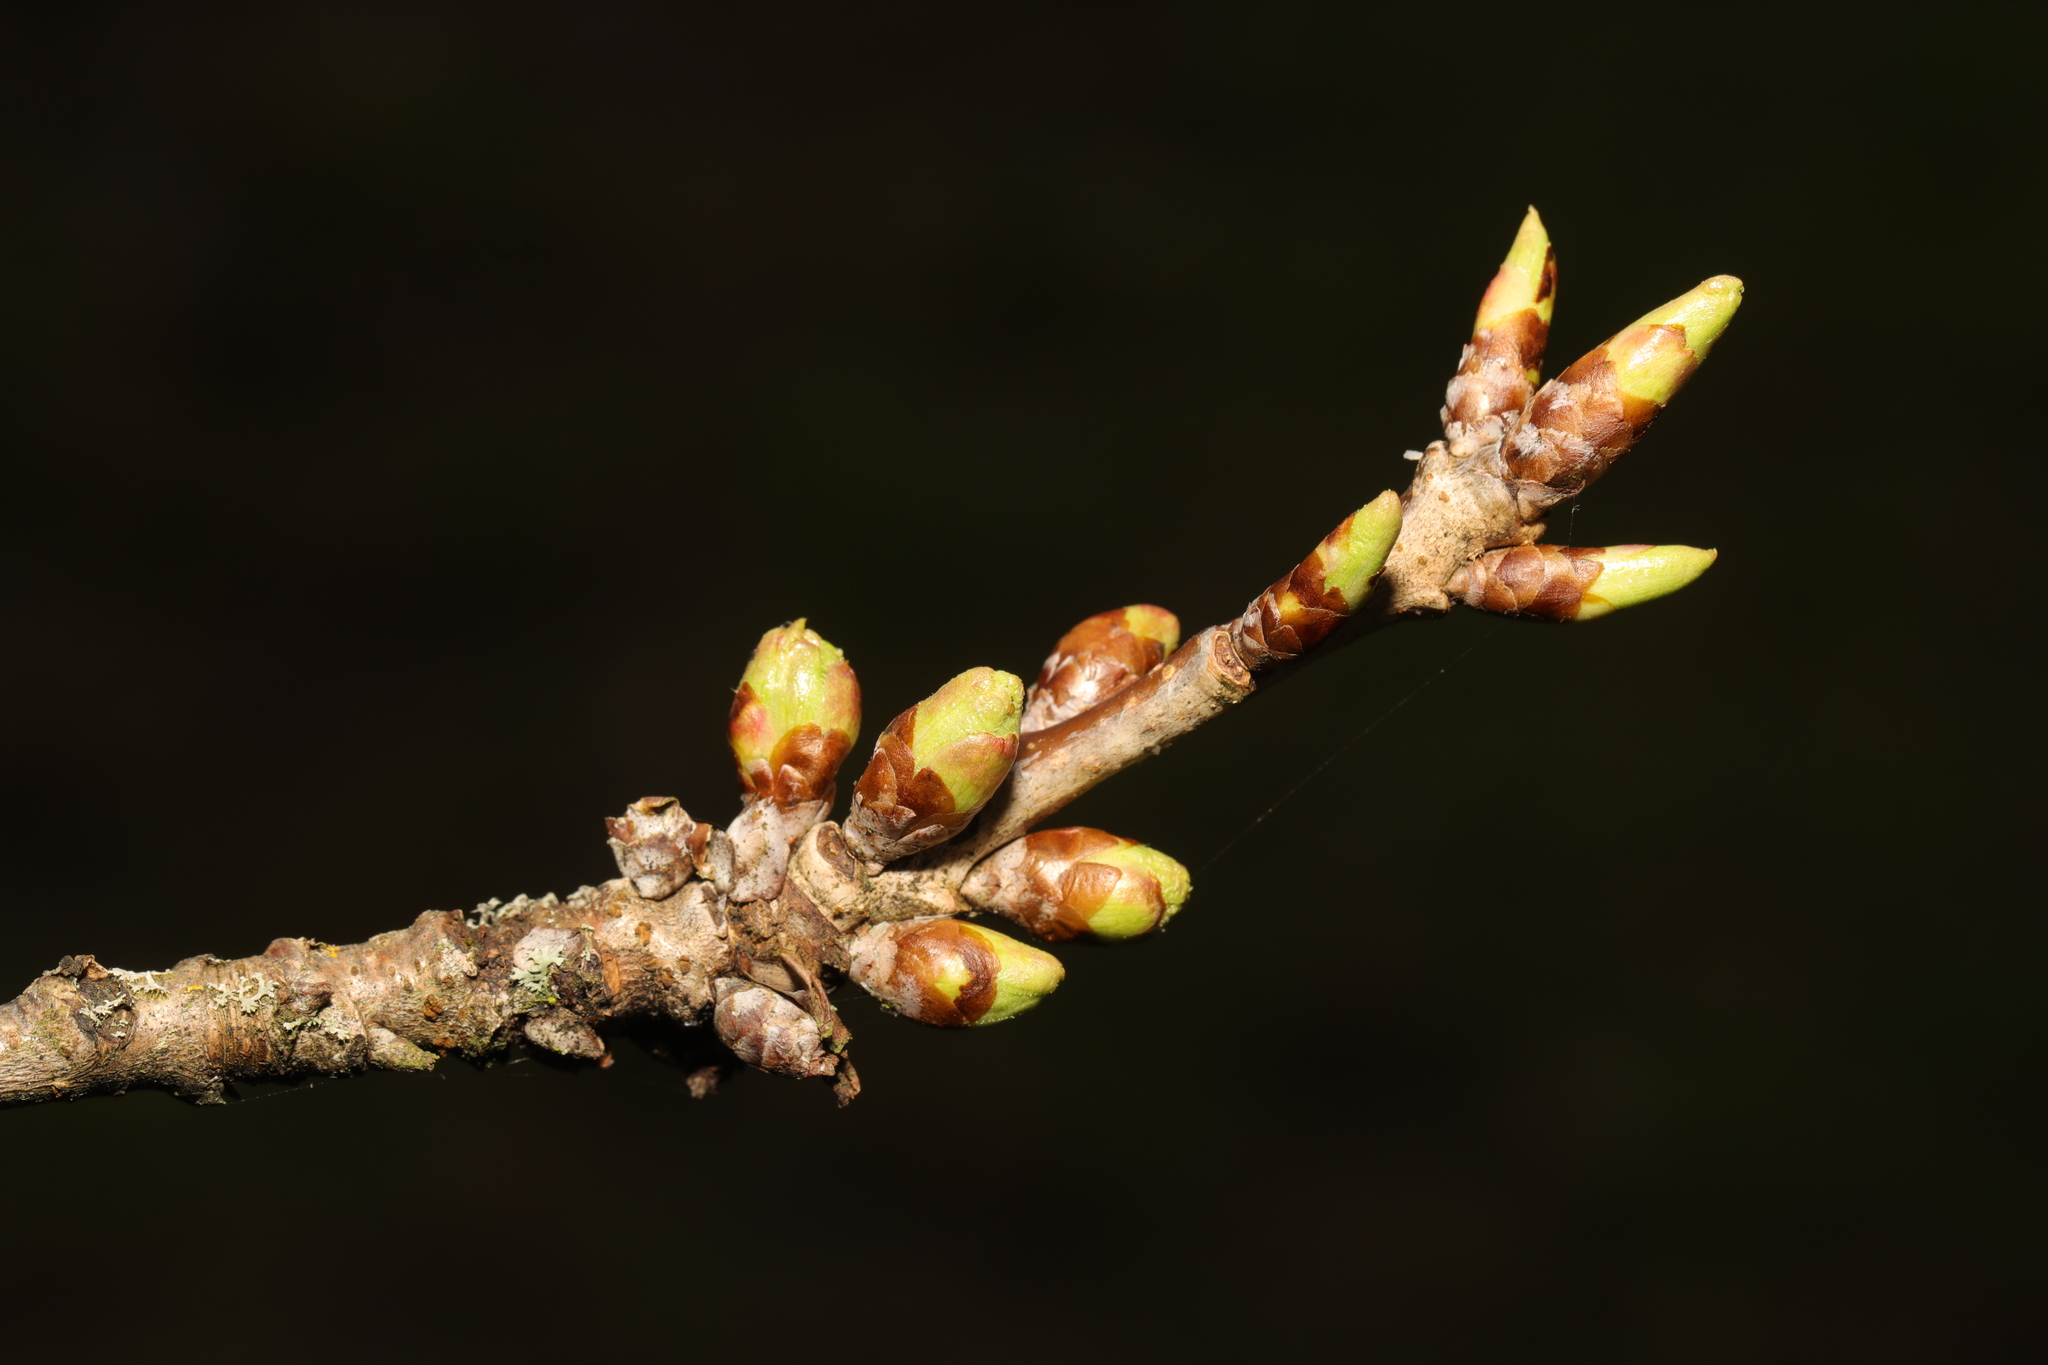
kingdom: Plantae
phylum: Tracheophyta
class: Magnoliopsida
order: Fagales
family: Fagaceae
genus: Quercus
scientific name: Quercus robur
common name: Pedunculate oak
